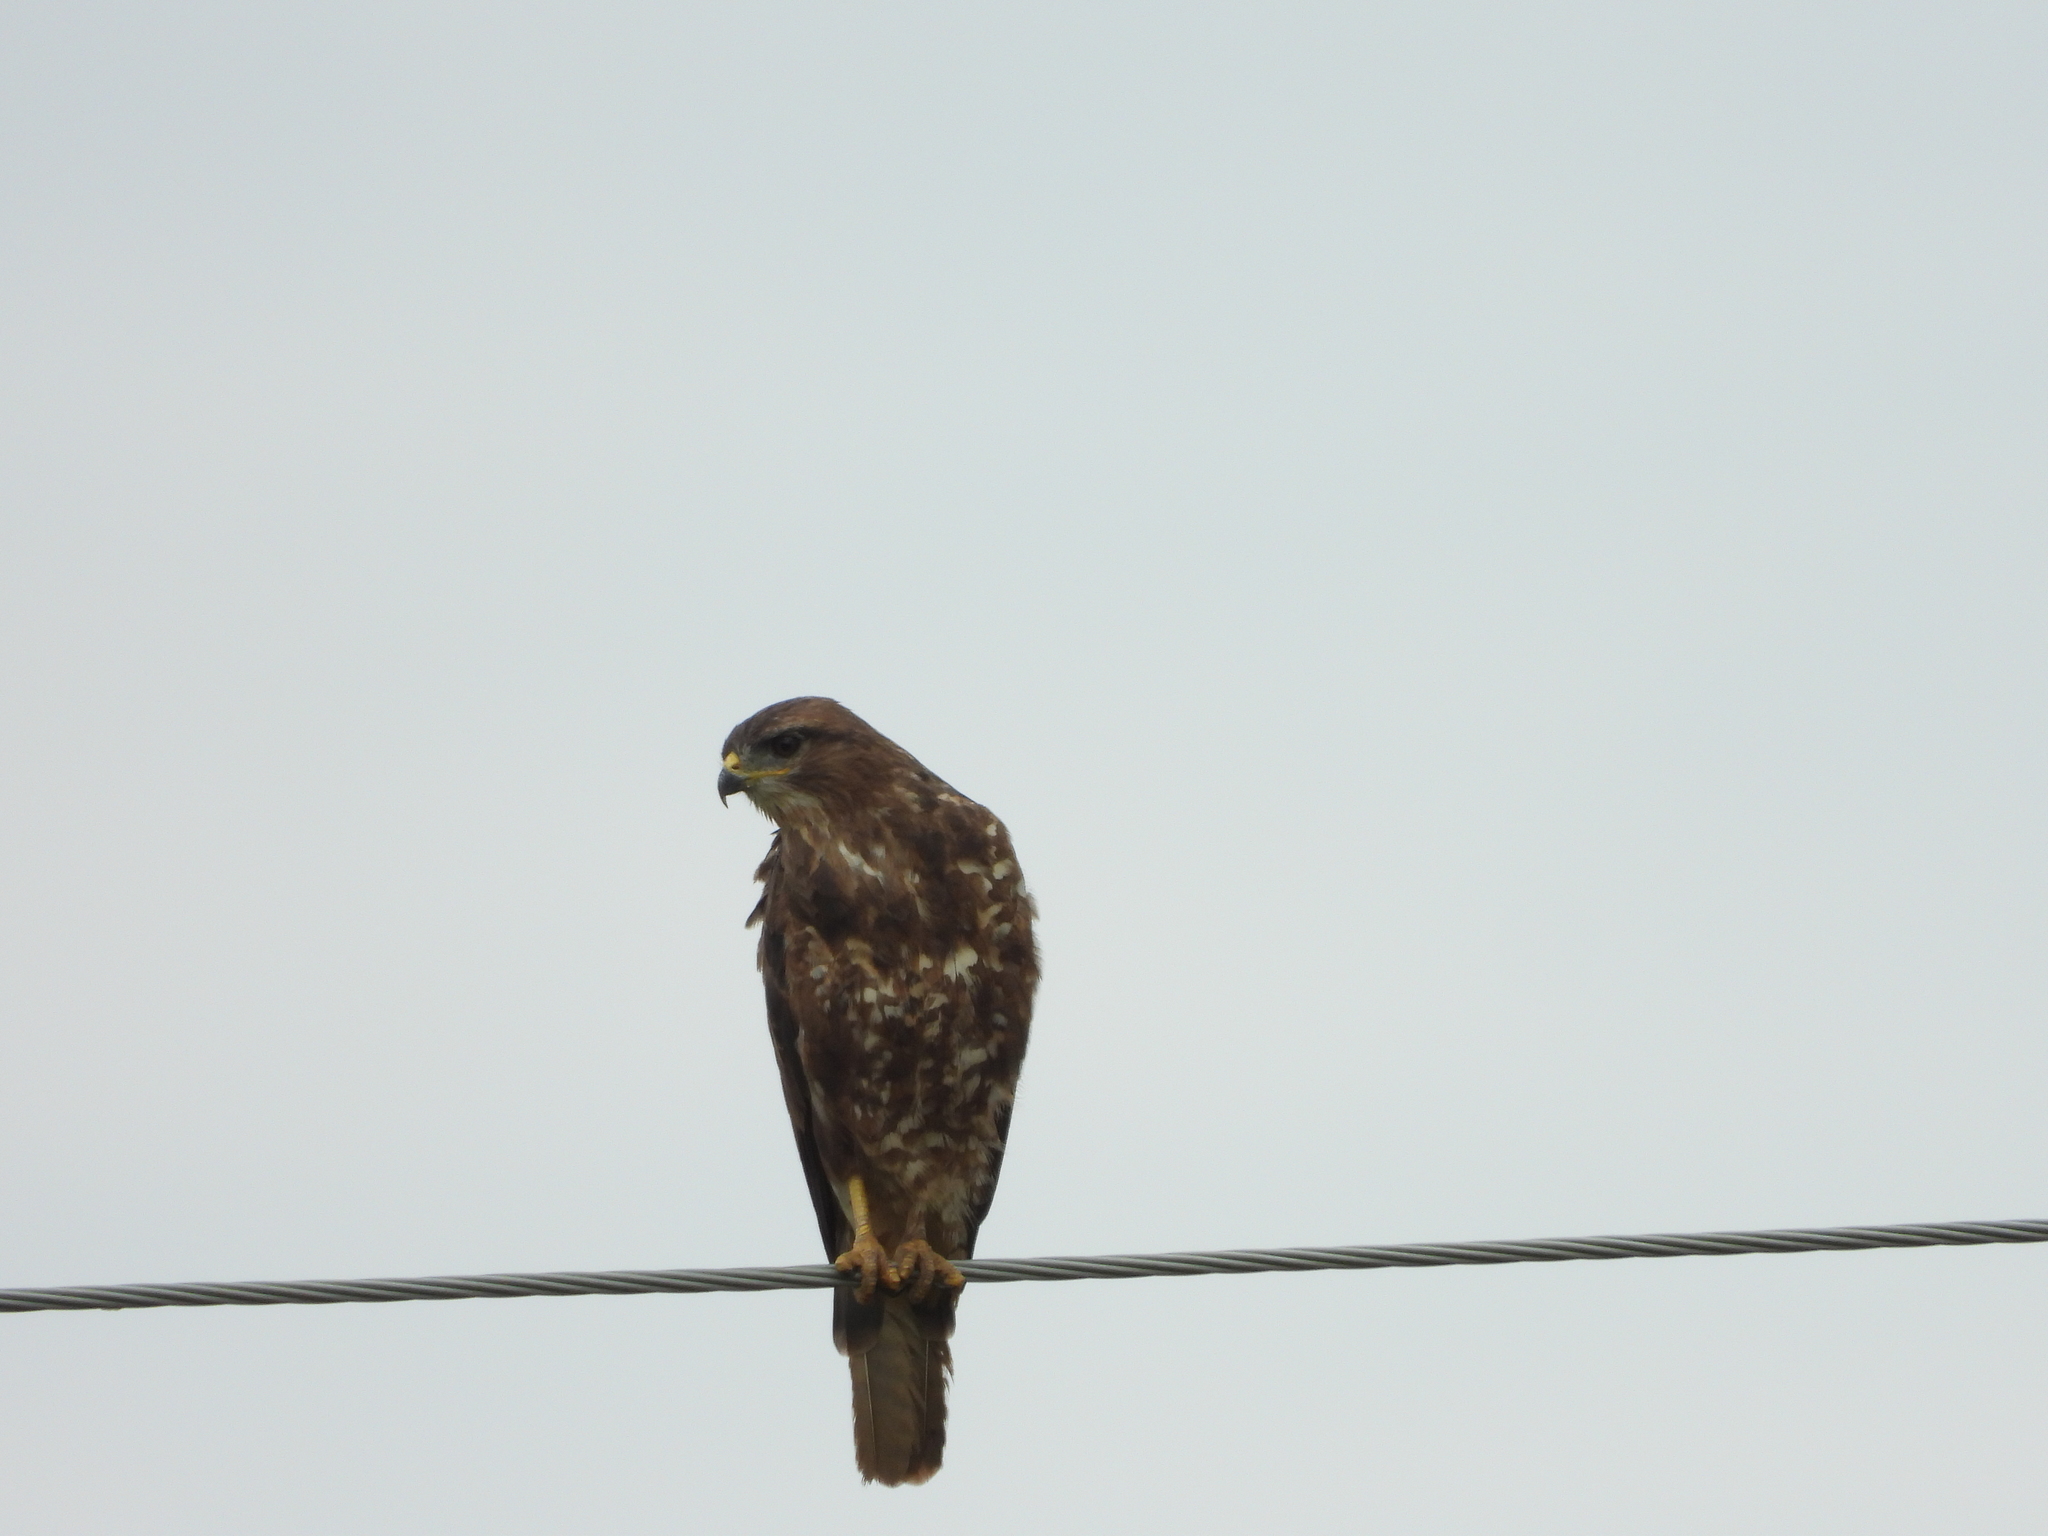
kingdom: Animalia
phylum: Chordata
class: Aves
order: Accipitriformes
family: Accipitridae
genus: Buteo
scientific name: Buteo buteo
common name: Common buzzard
